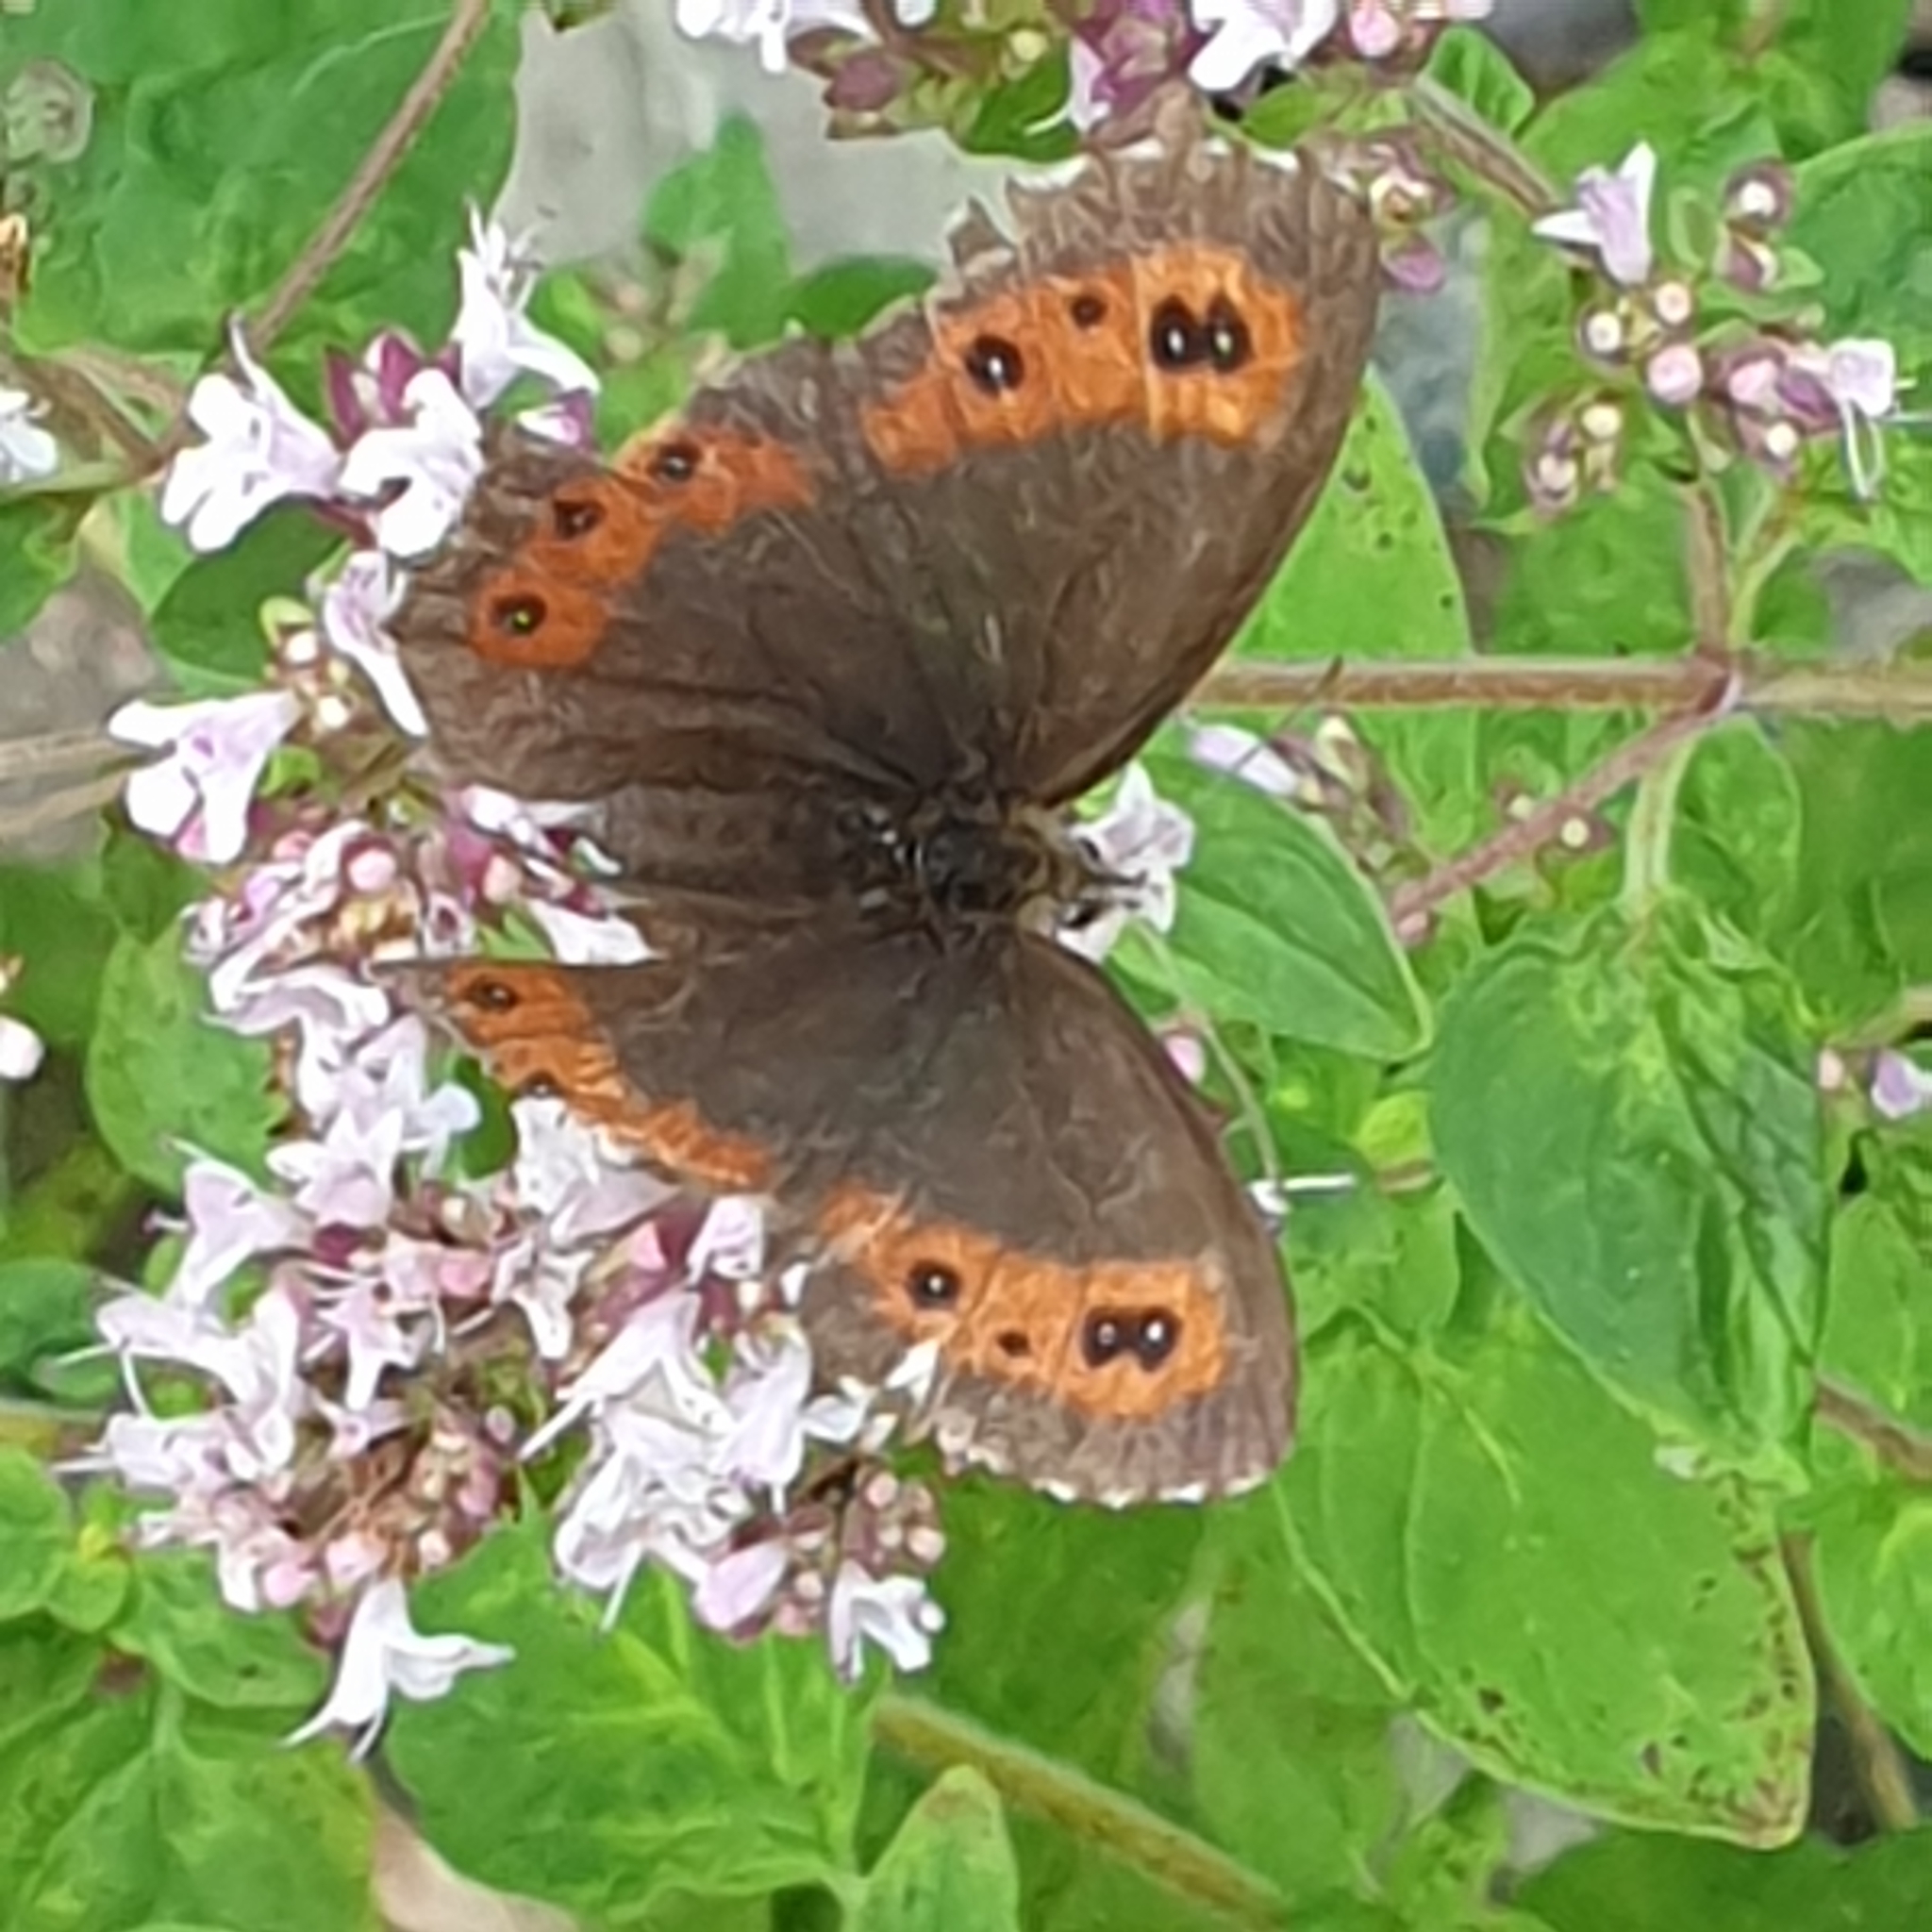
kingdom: Animalia
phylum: Arthropoda
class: Insecta
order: Lepidoptera
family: Nymphalidae
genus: Erebia
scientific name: Erebia ligea
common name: Arran brown
